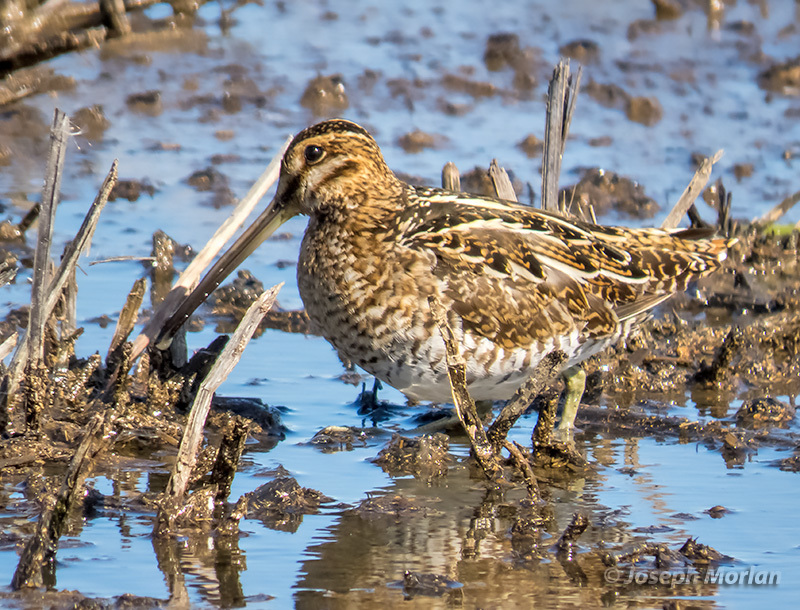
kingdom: Animalia
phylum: Chordata
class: Aves
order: Charadriiformes
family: Scolopacidae
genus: Gallinago
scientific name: Gallinago delicata
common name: Wilson's snipe
